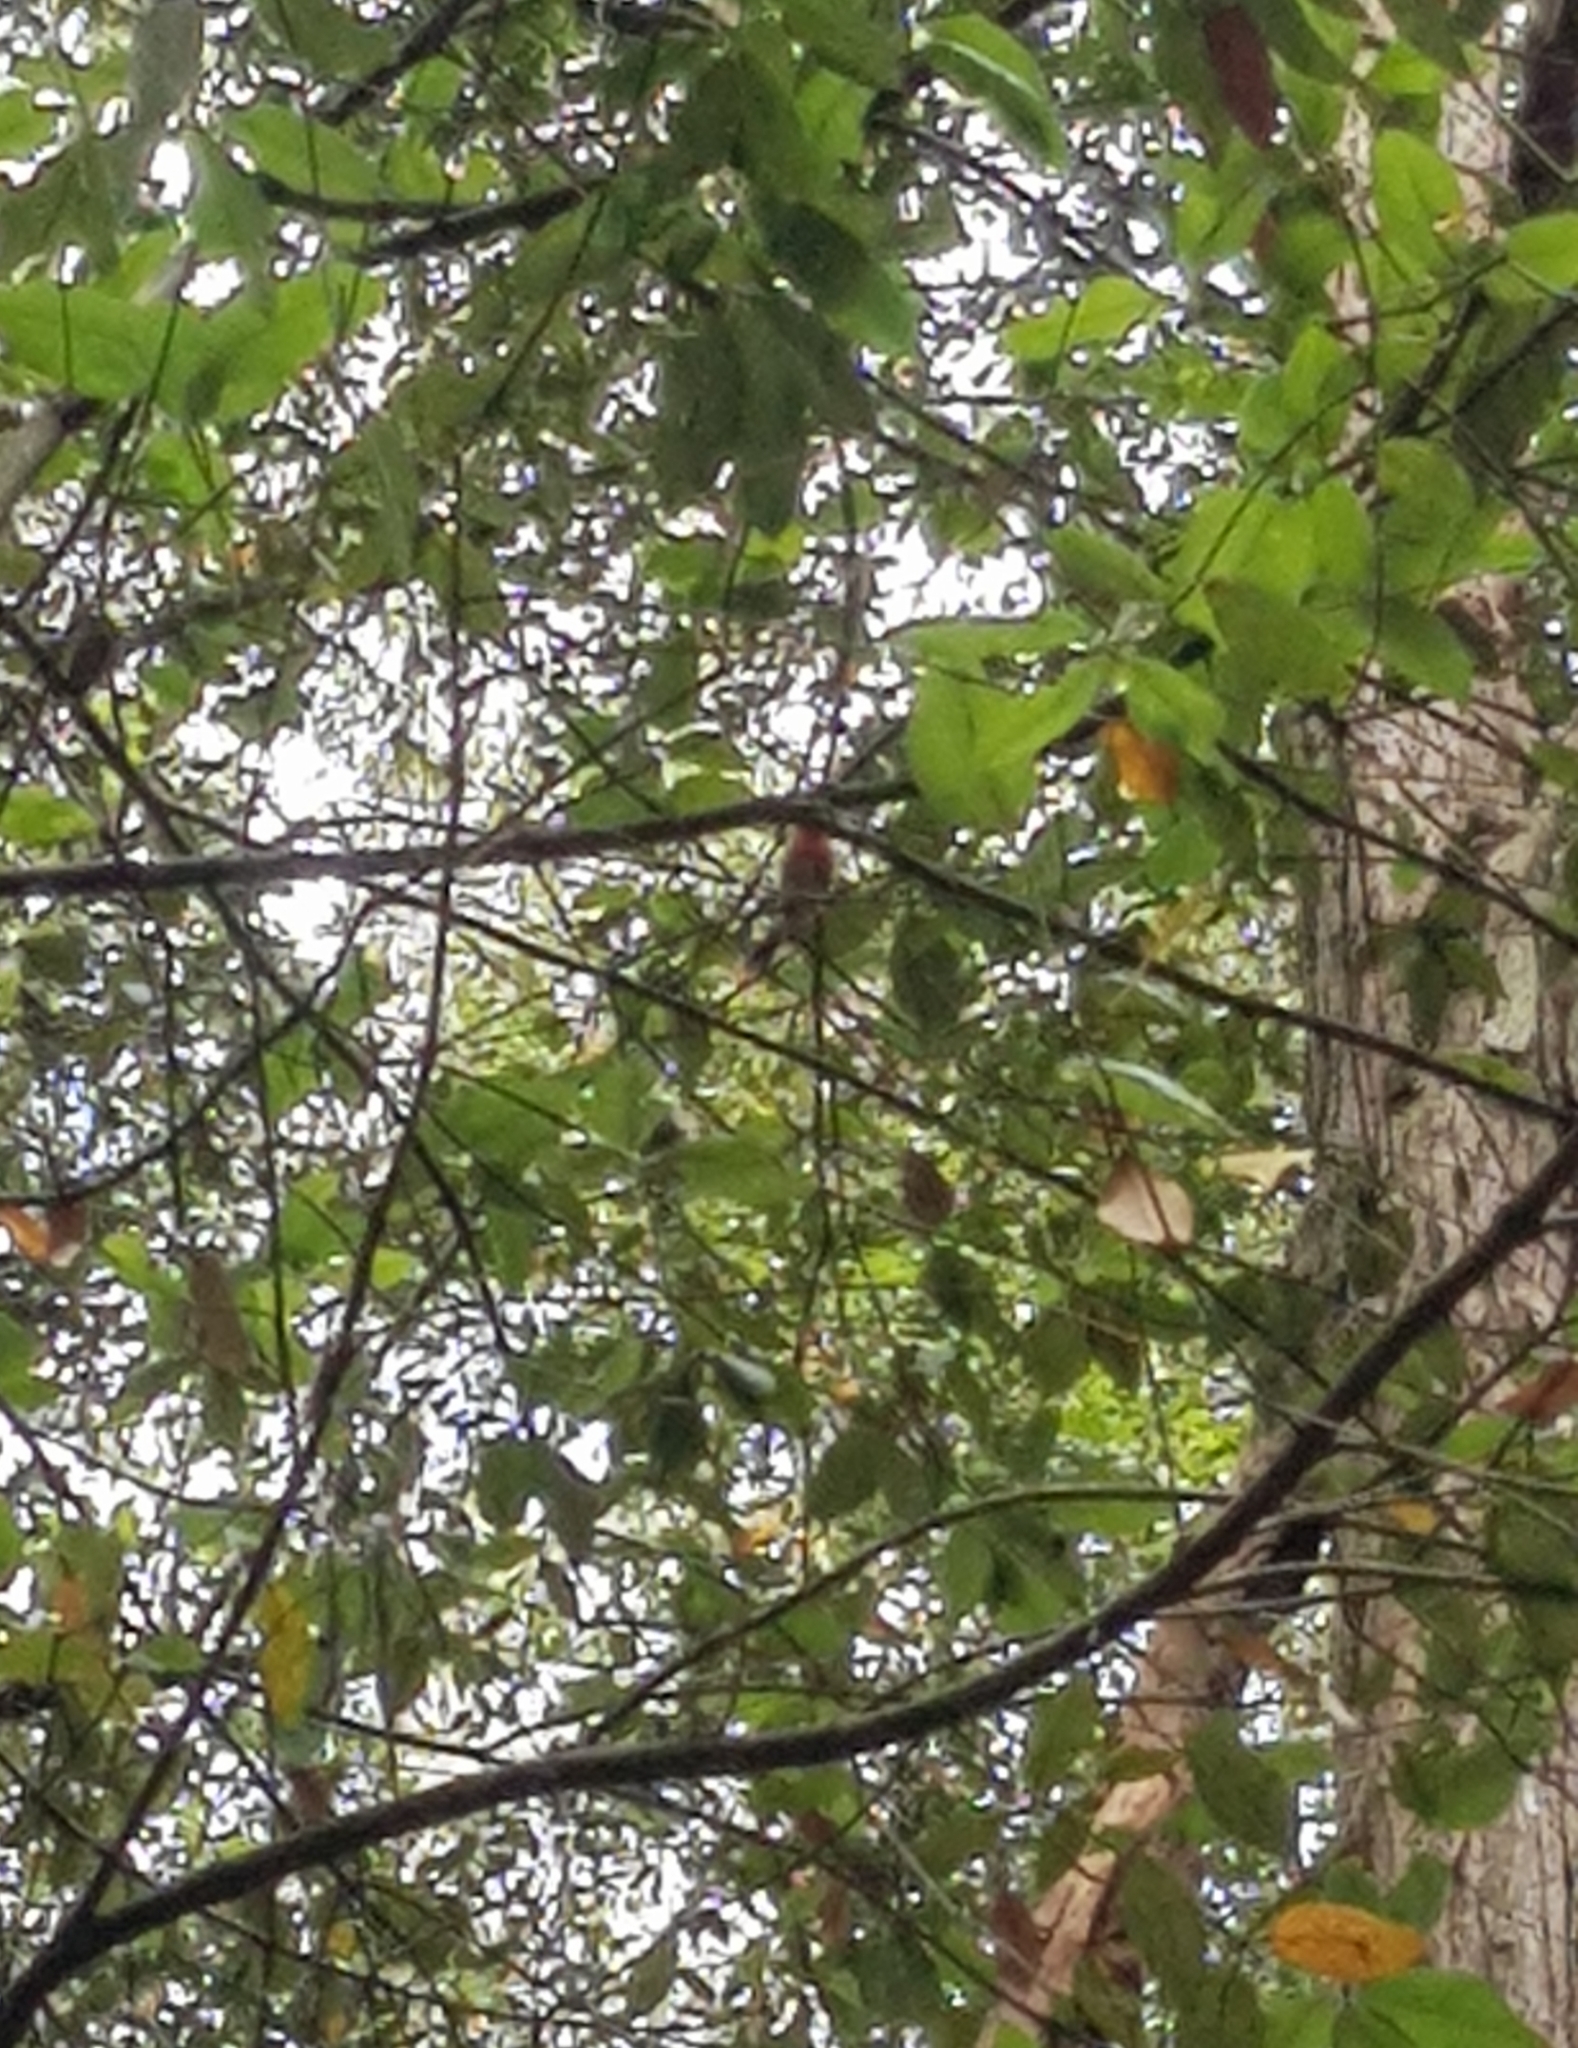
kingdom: Animalia
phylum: Chordata
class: Aves
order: Passeriformes
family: Meliphagidae
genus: Myzomela
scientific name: Myzomela sanguinolenta
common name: Scarlet myzomela
